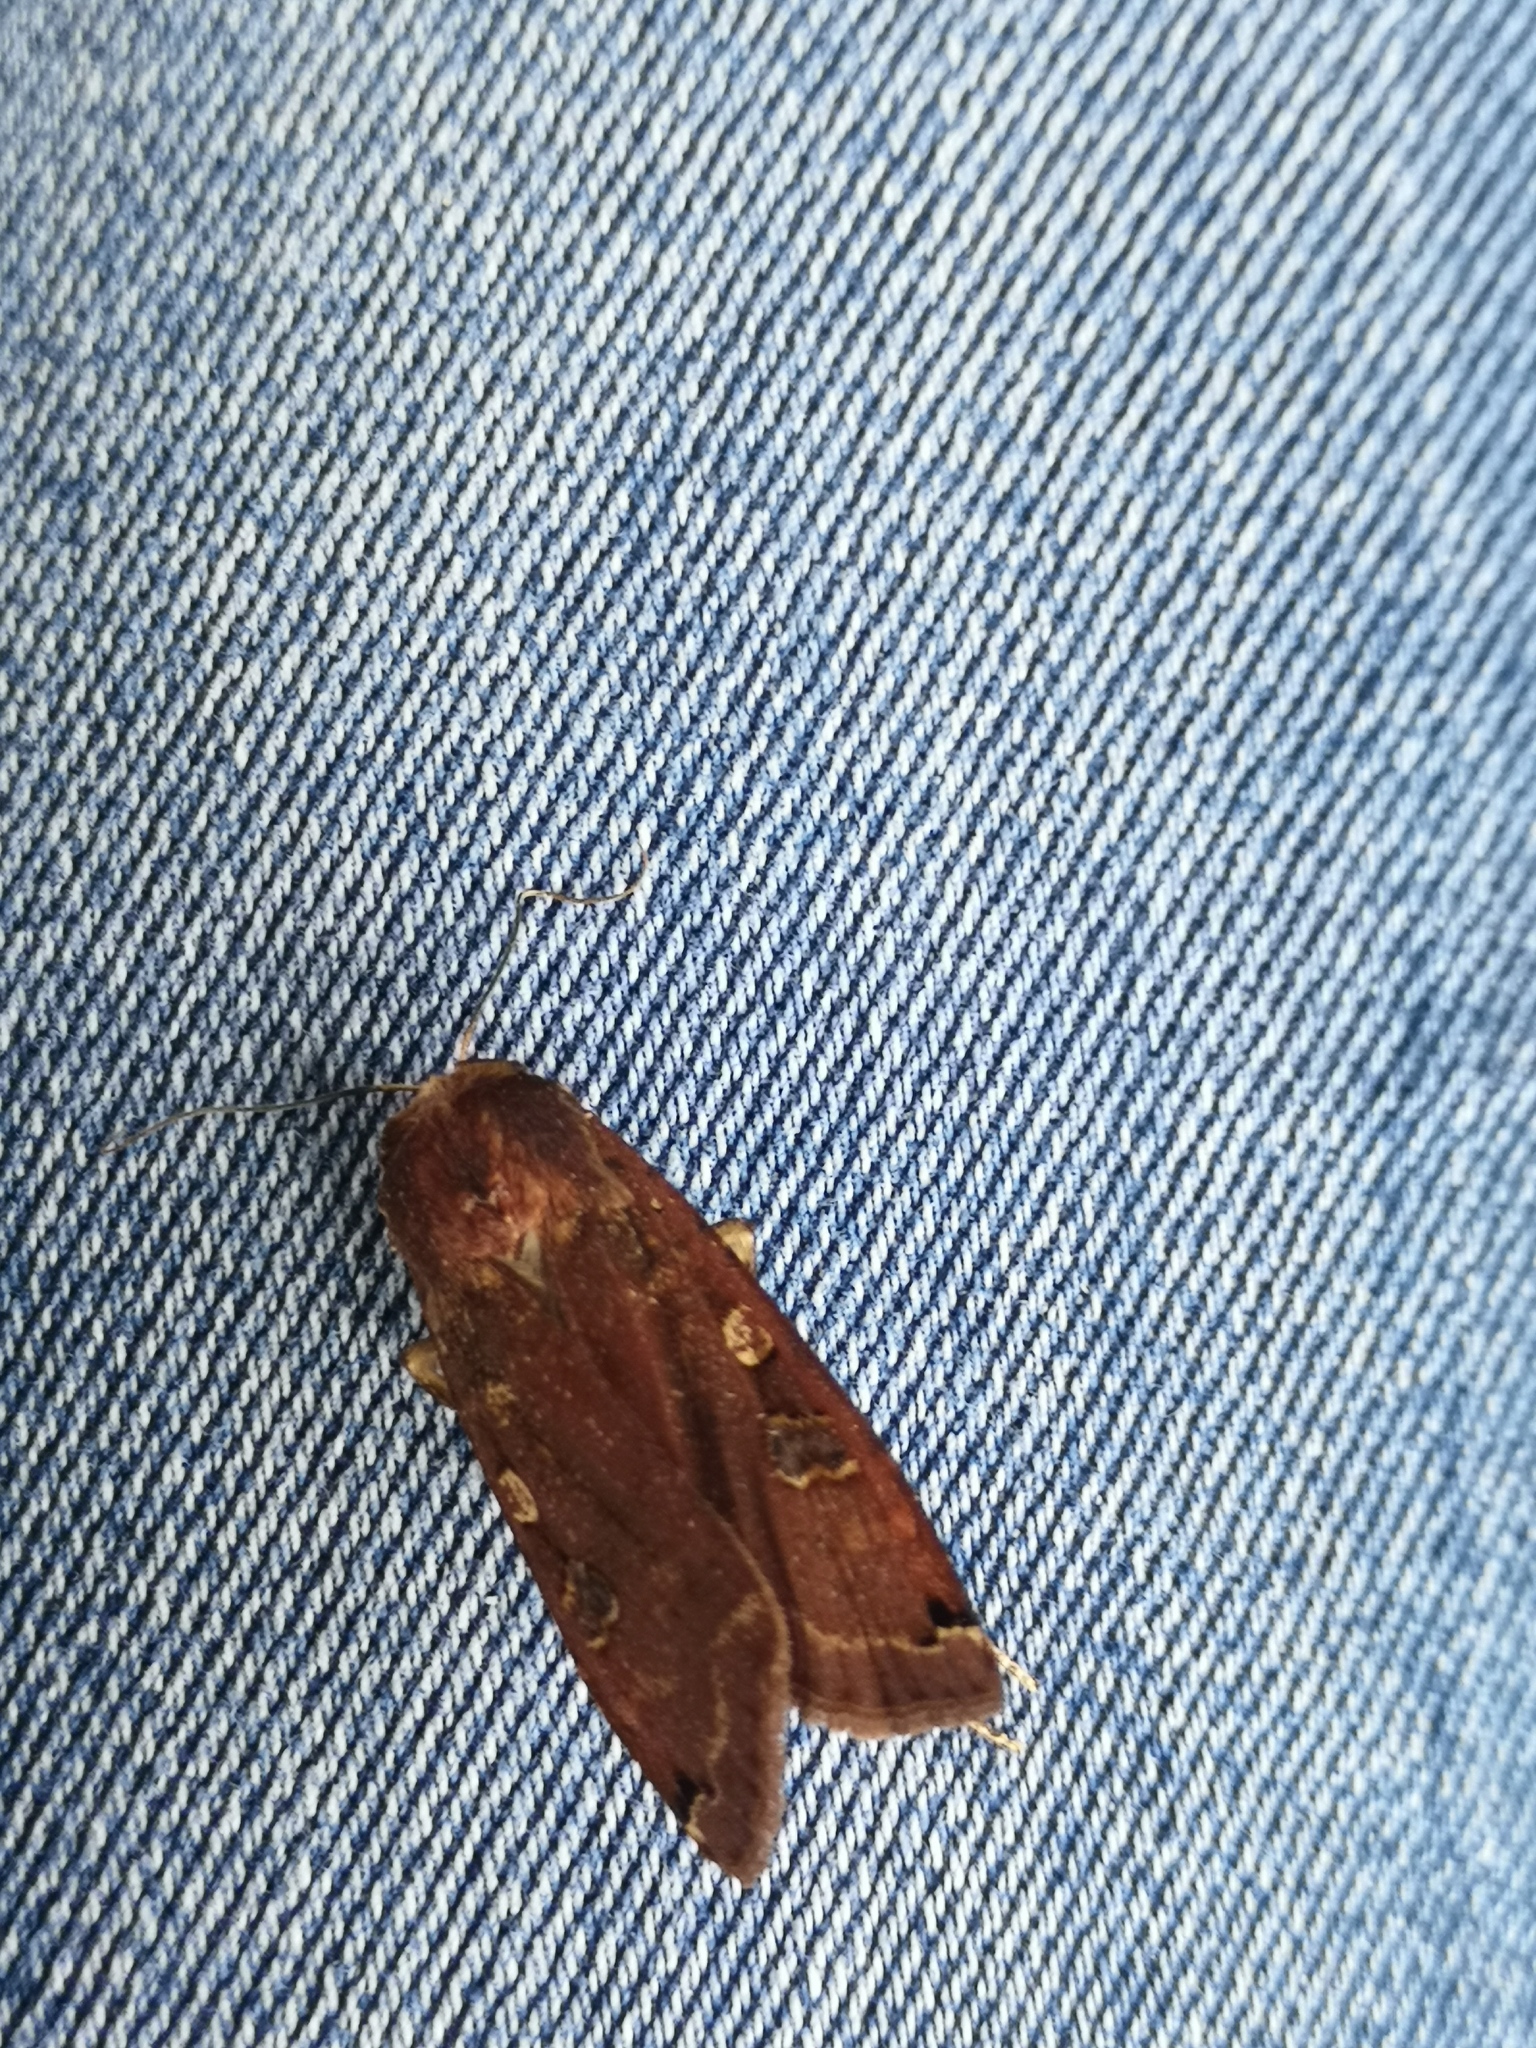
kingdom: Animalia
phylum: Arthropoda
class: Insecta
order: Lepidoptera
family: Noctuidae
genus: Noctua
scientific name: Noctua pronuba
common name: Large yellow underwing
